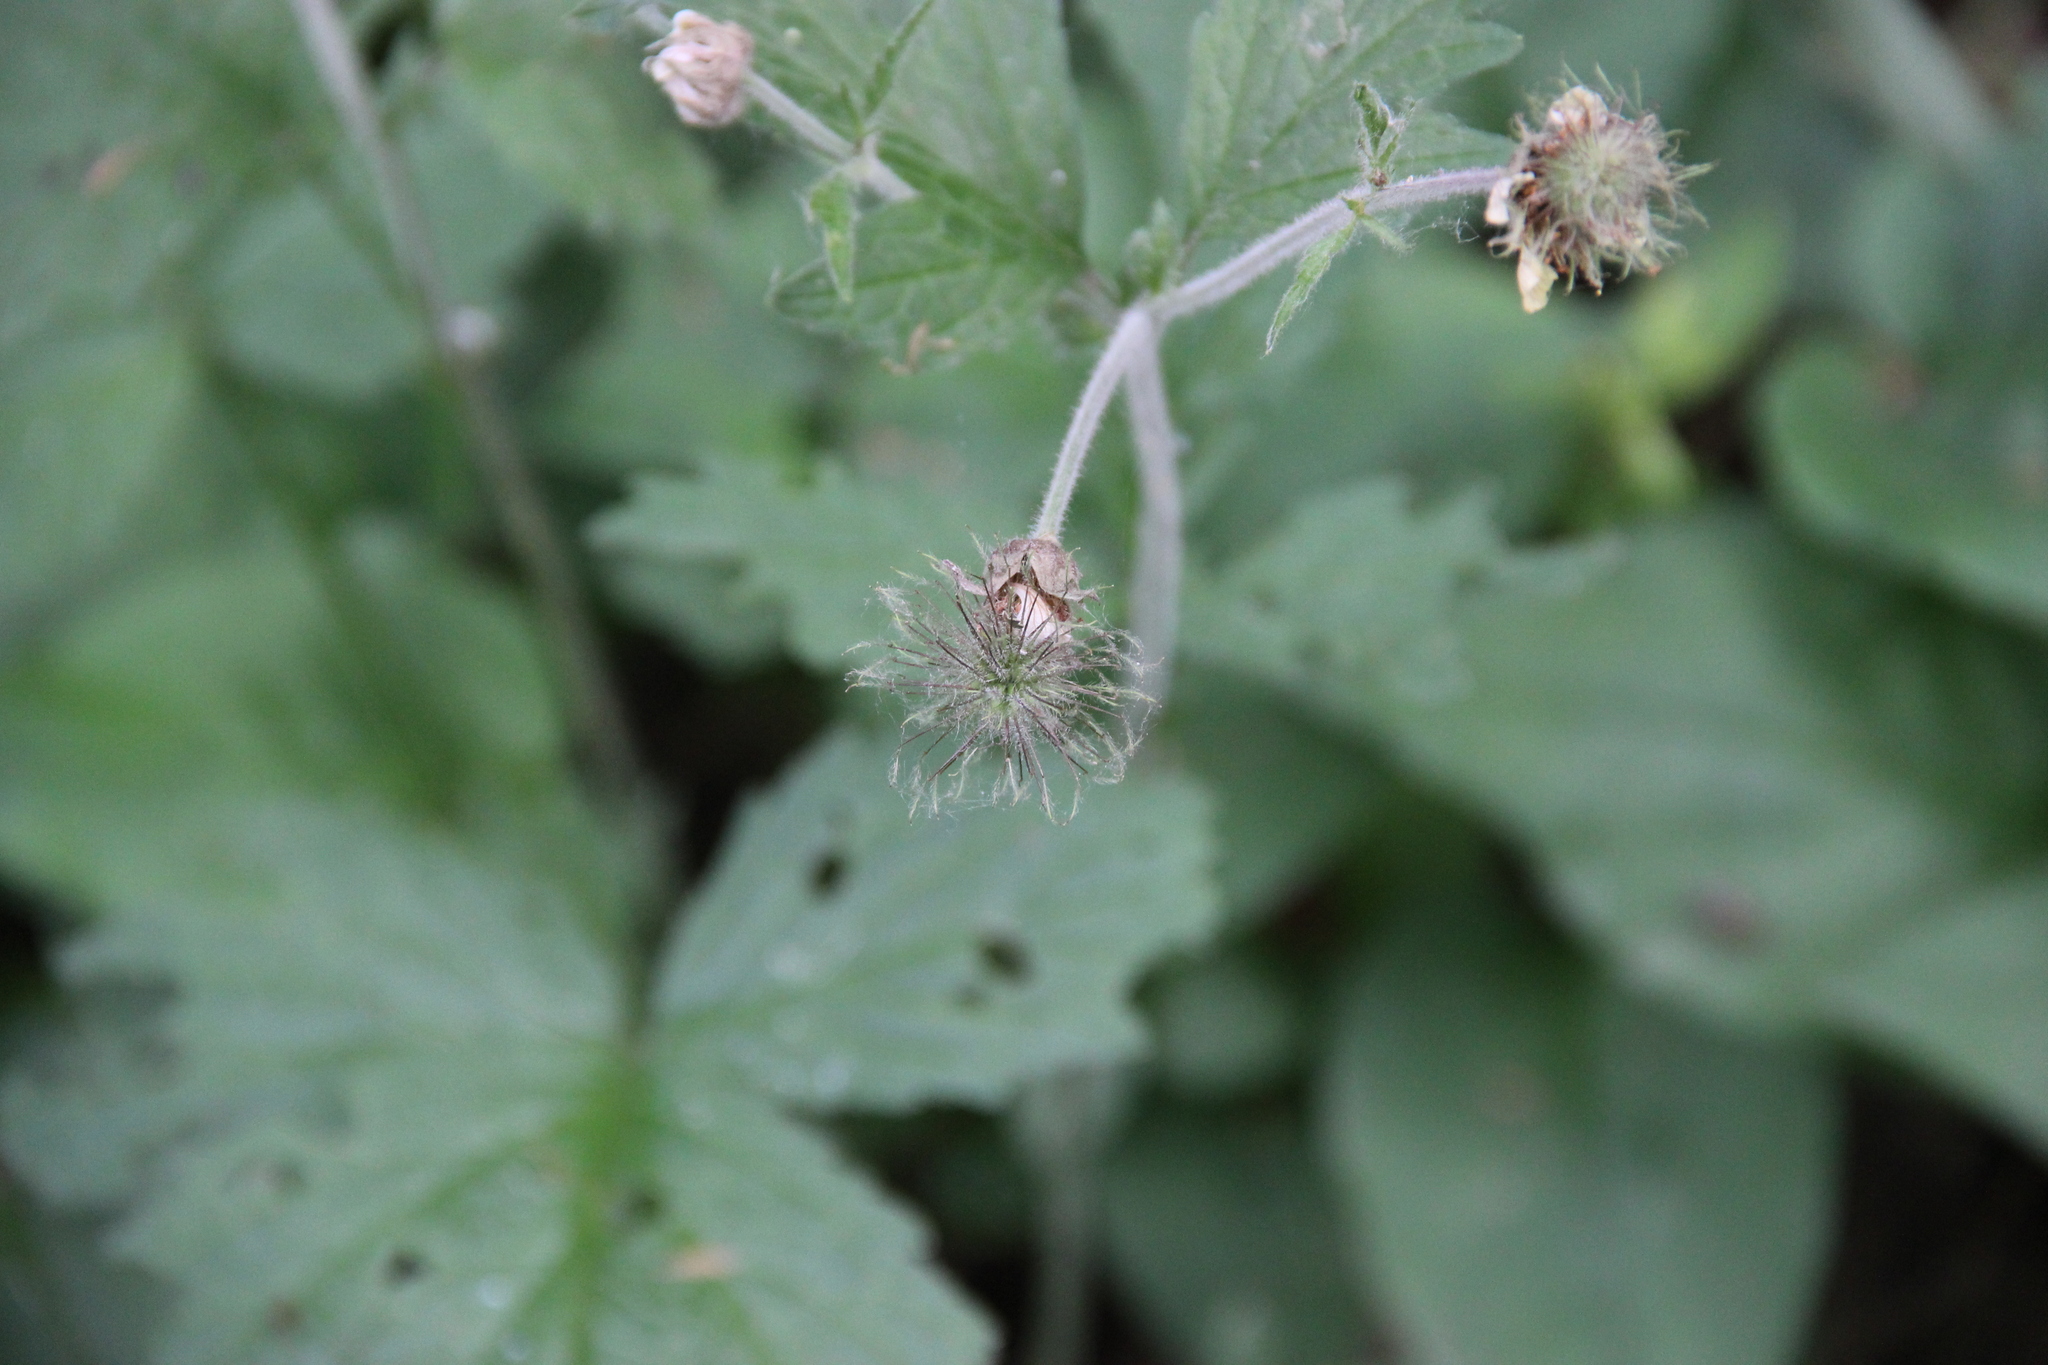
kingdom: Plantae
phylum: Tracheophyta
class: Magnoliopsida
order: Rosales
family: Rosaceae
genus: Geum
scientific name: Geum rivale
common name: Water avens
